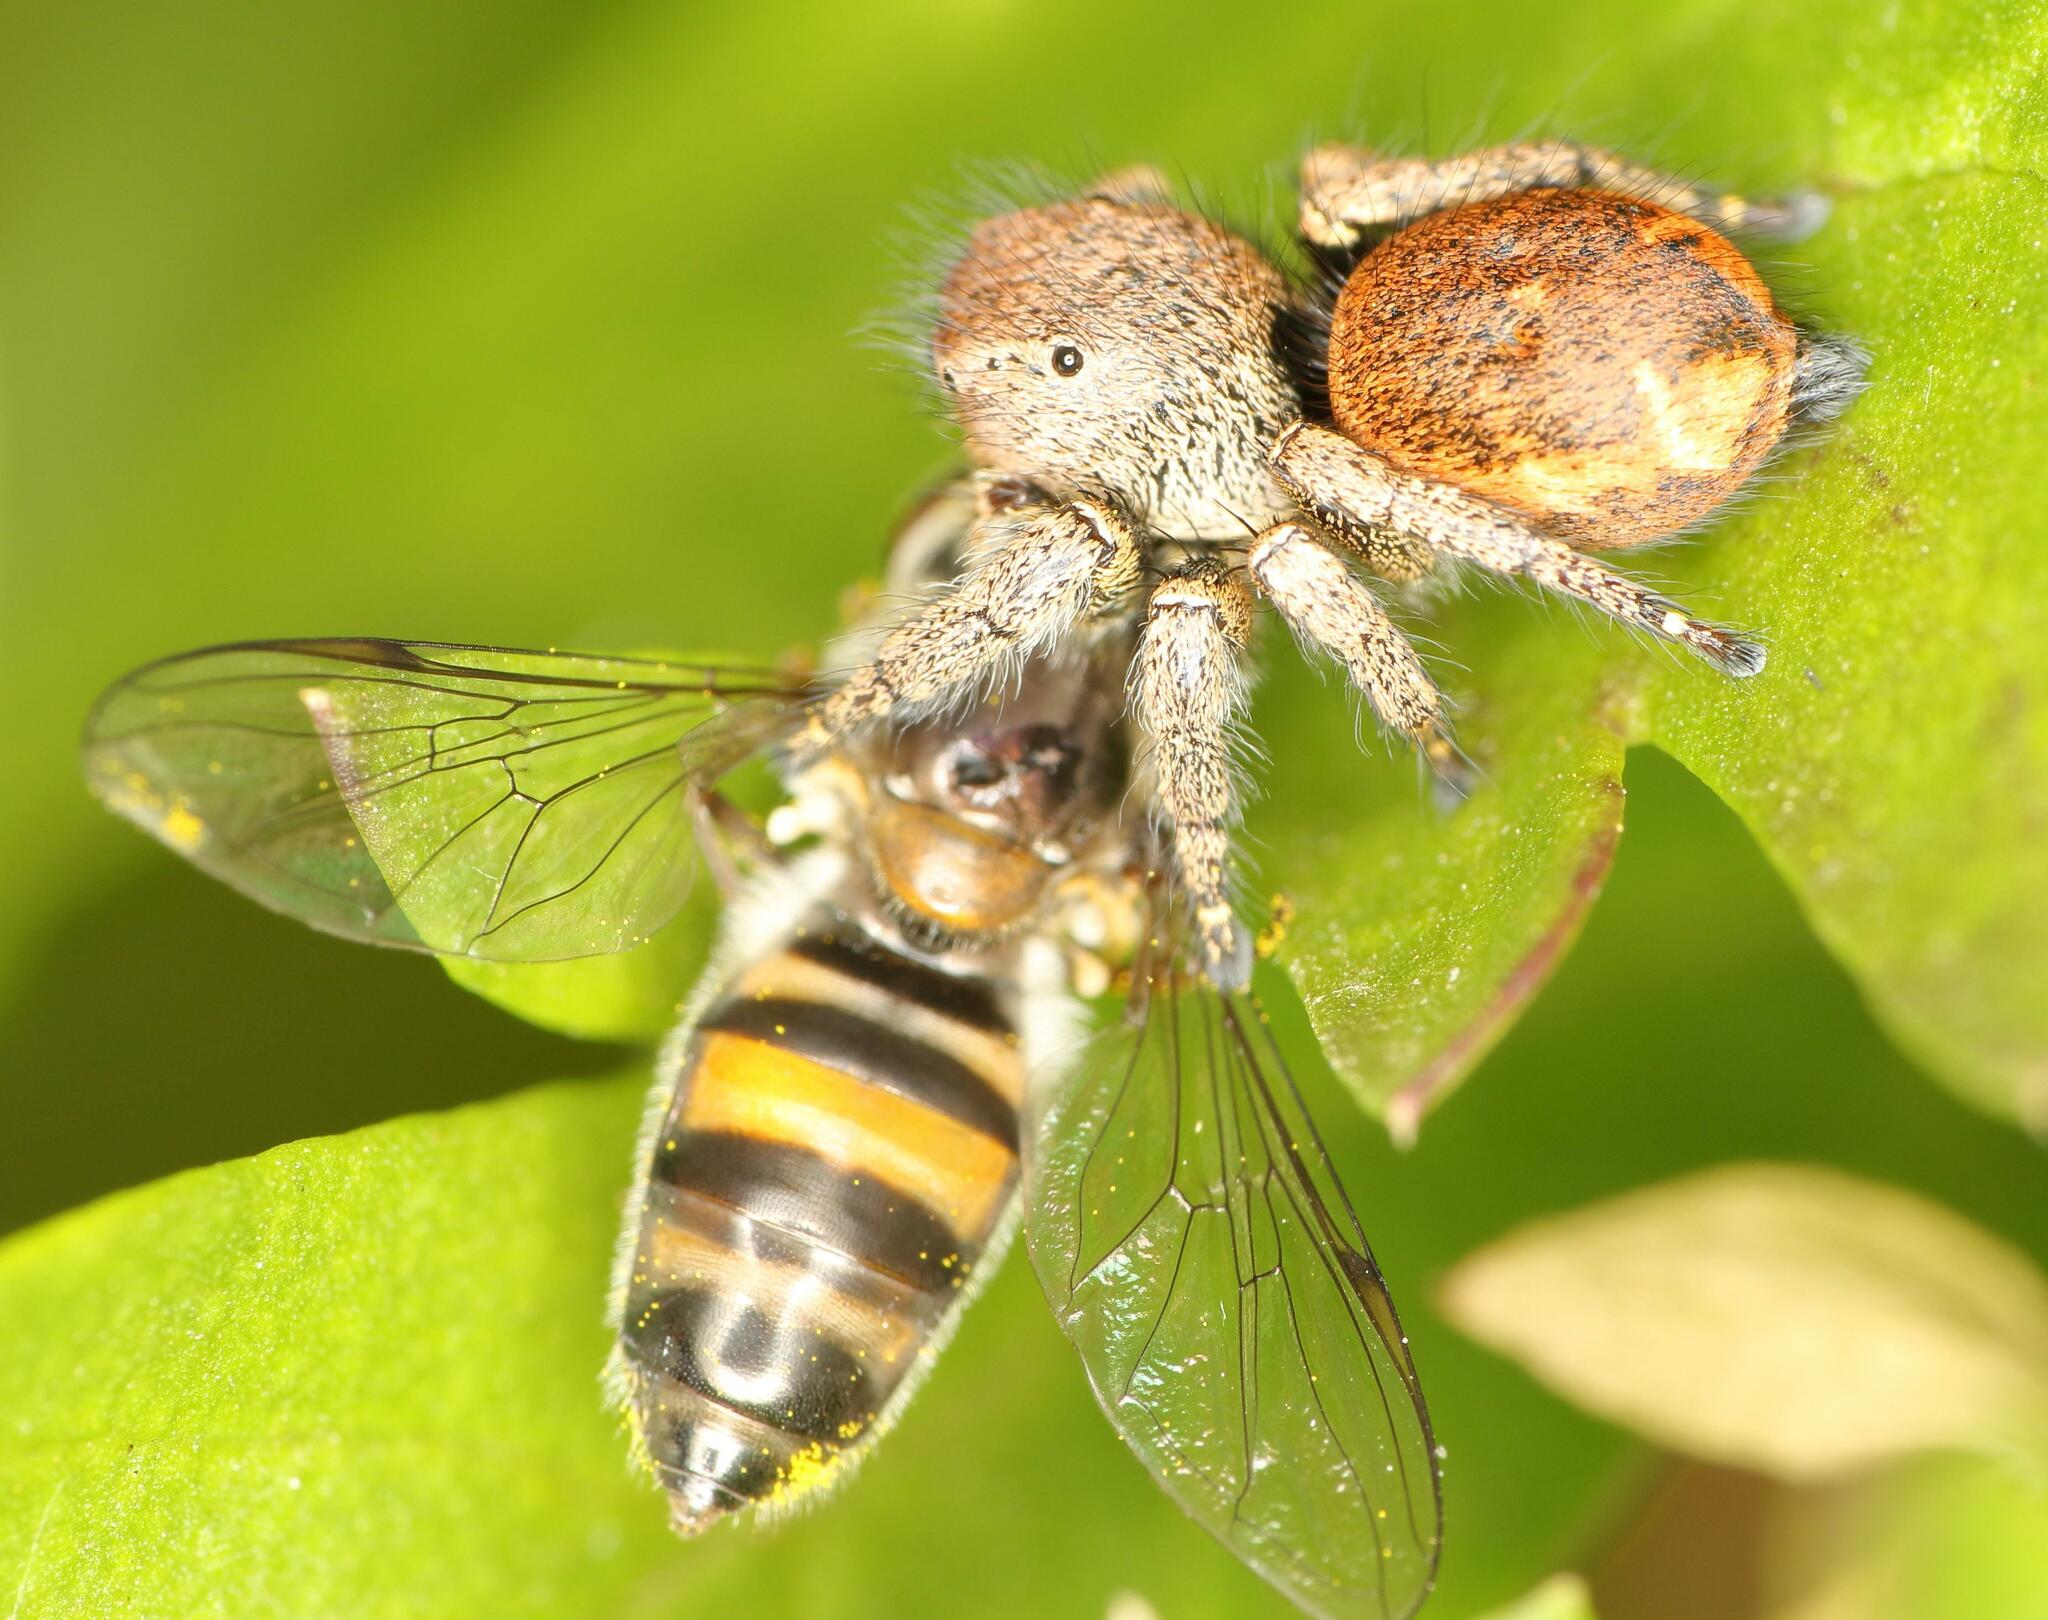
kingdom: Animalia
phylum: Arthropoda
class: Arachnida
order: Araneae
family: Salticidae
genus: Baryphas
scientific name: Baryphas ahenus
